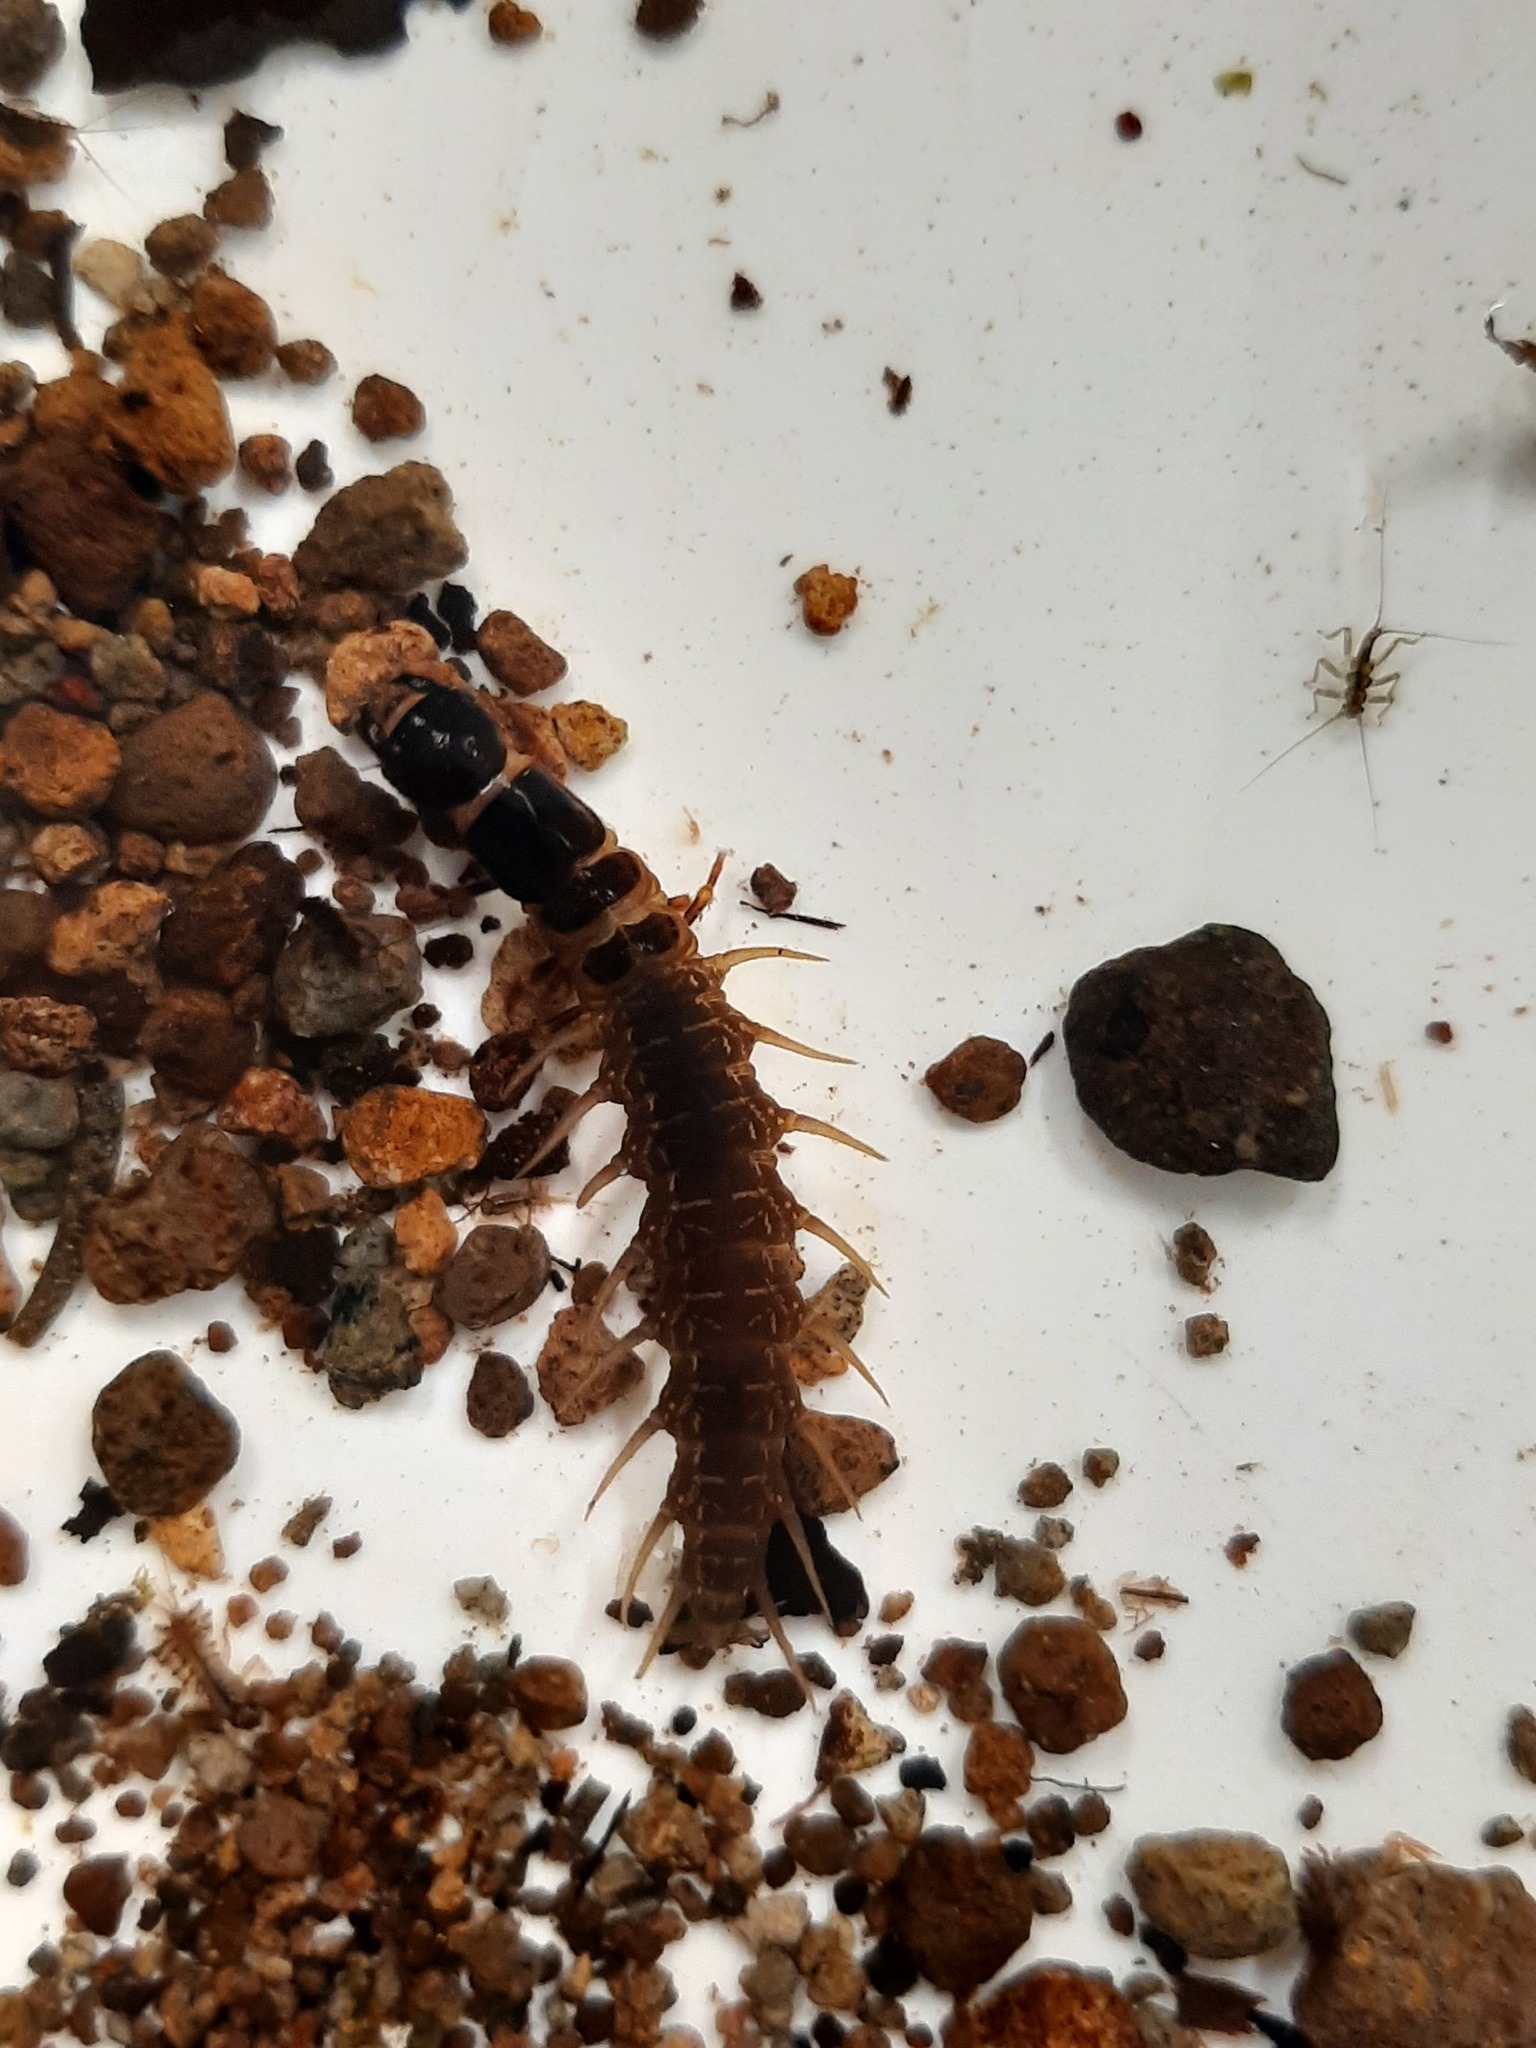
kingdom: Animalia
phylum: Arthropoda
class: Insecta
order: Megaloptera
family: Corydalidae
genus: Archichauliodes
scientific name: Archichauliodes diversus
